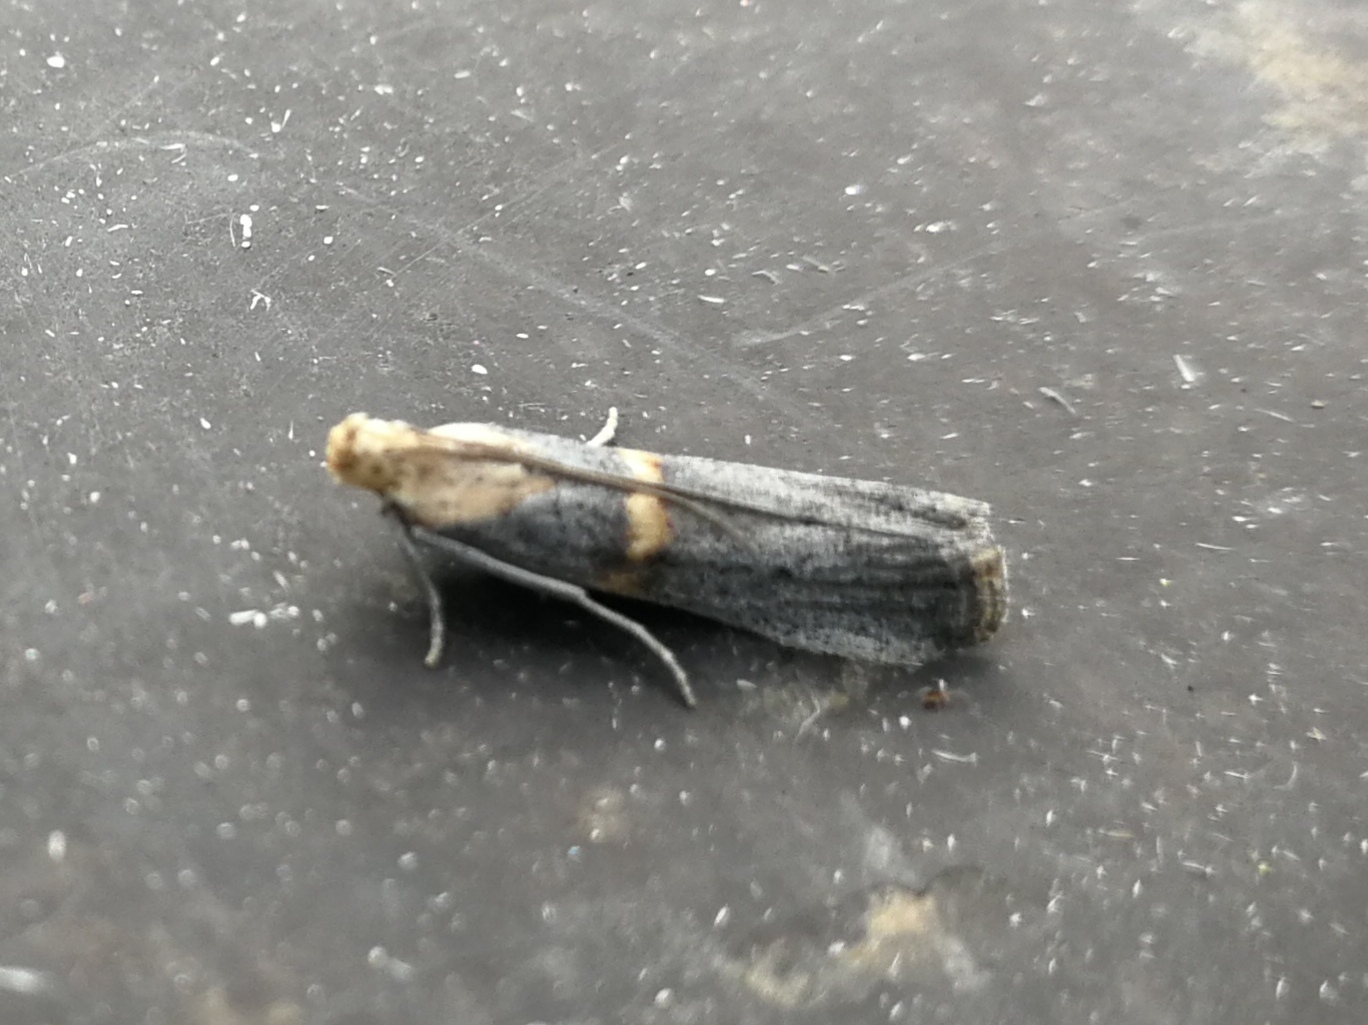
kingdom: Animalia
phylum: Arthropoda
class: Insecta
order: Lepidoptera
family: Pyralidae
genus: Oxybia
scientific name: Oxybia transversella
